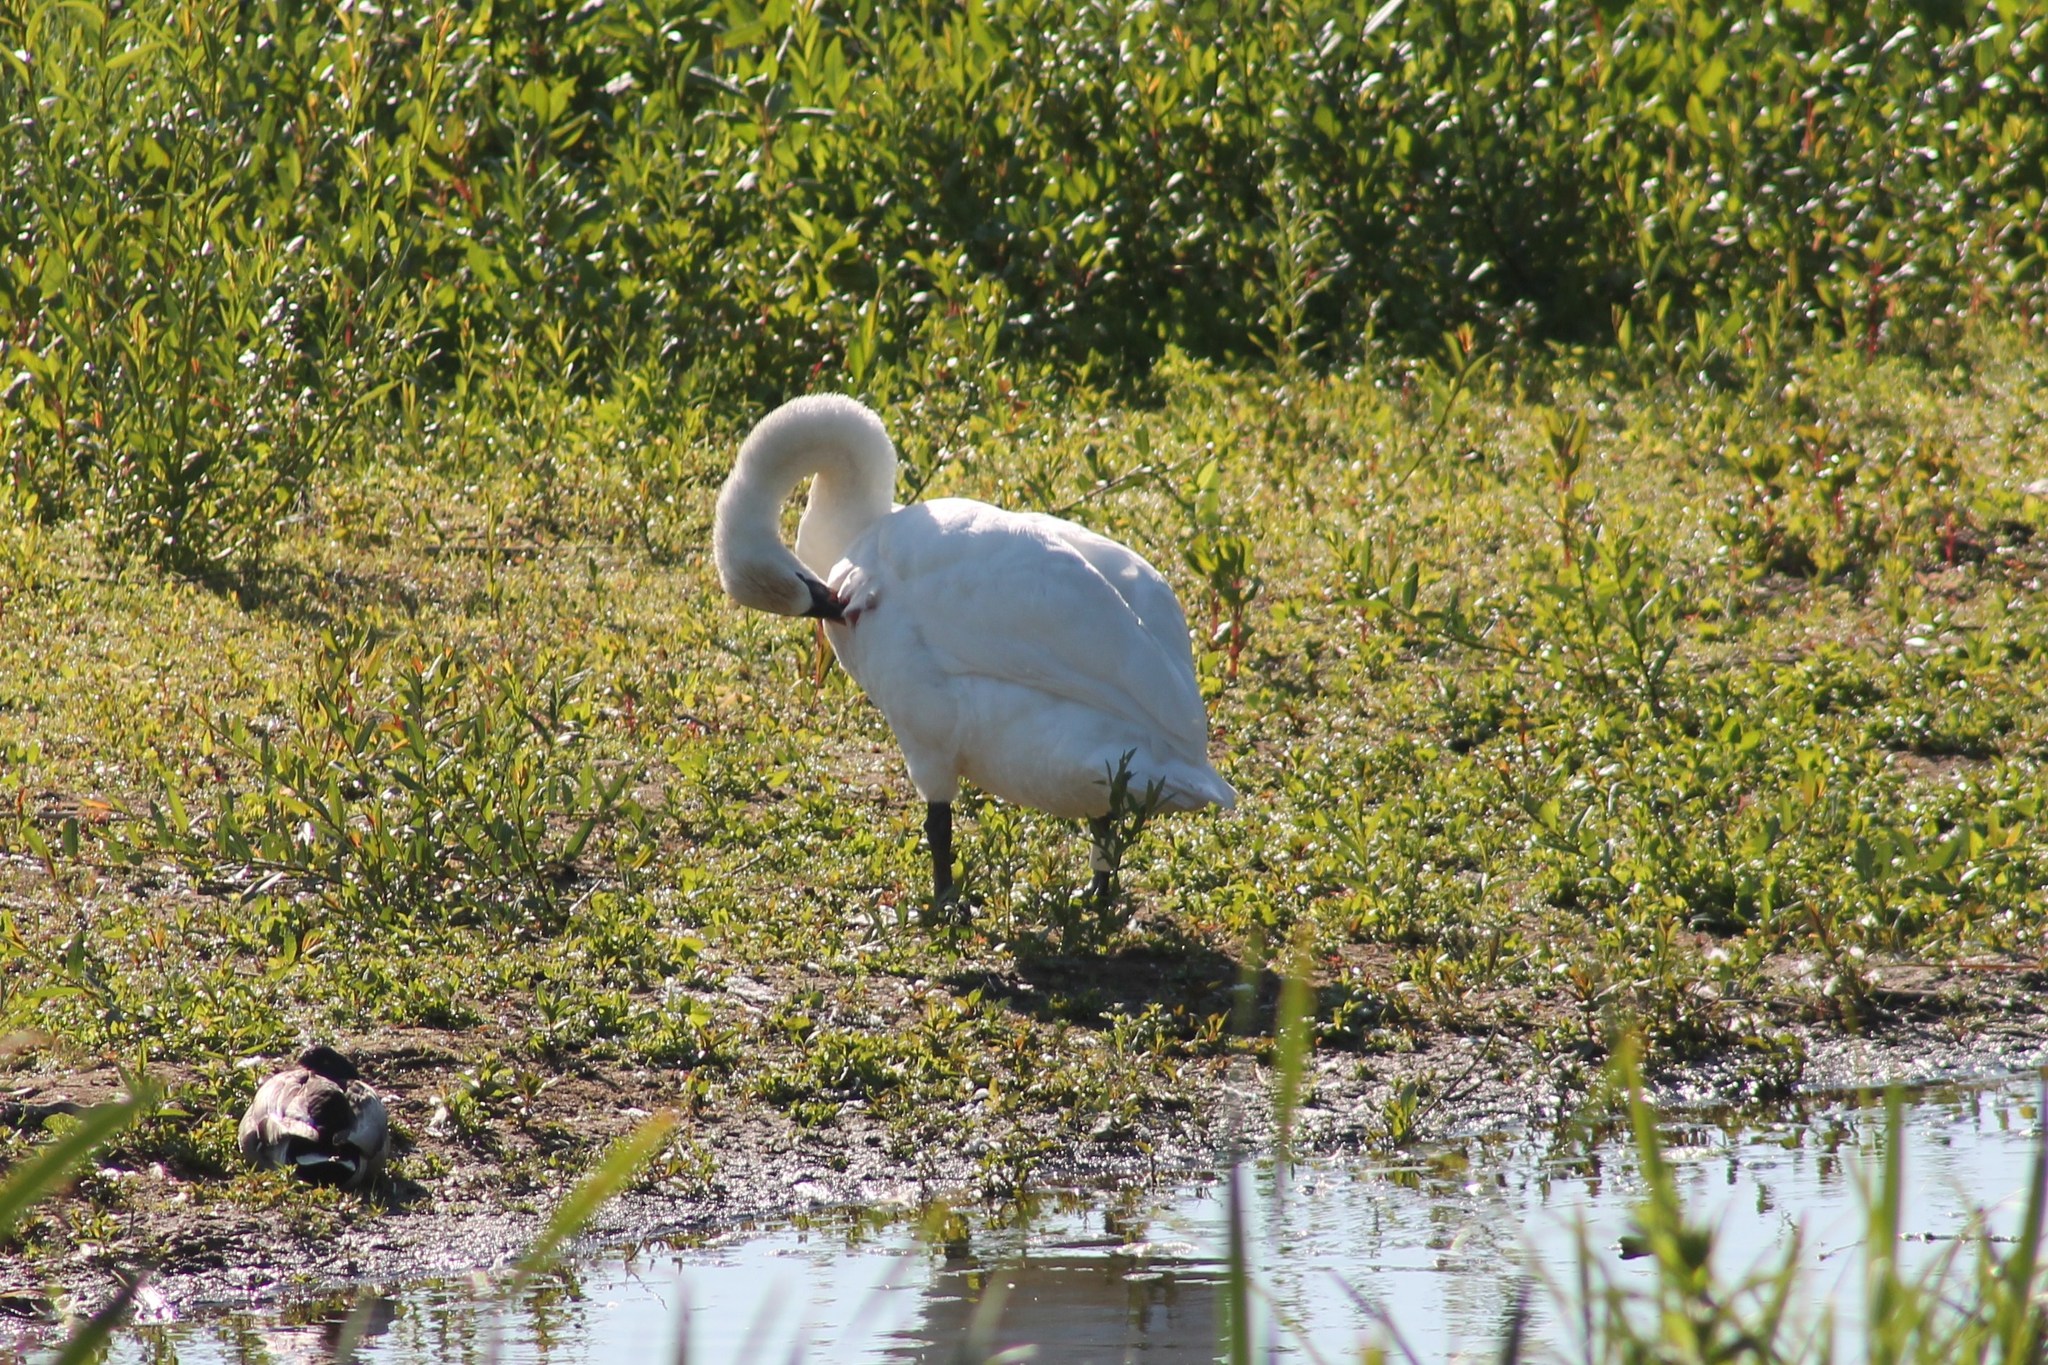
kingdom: Animalia
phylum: Chordata
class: Aves
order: Anseriformes
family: Anatidae
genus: Cygnus
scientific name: Cygnus olor
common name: Mute swan
